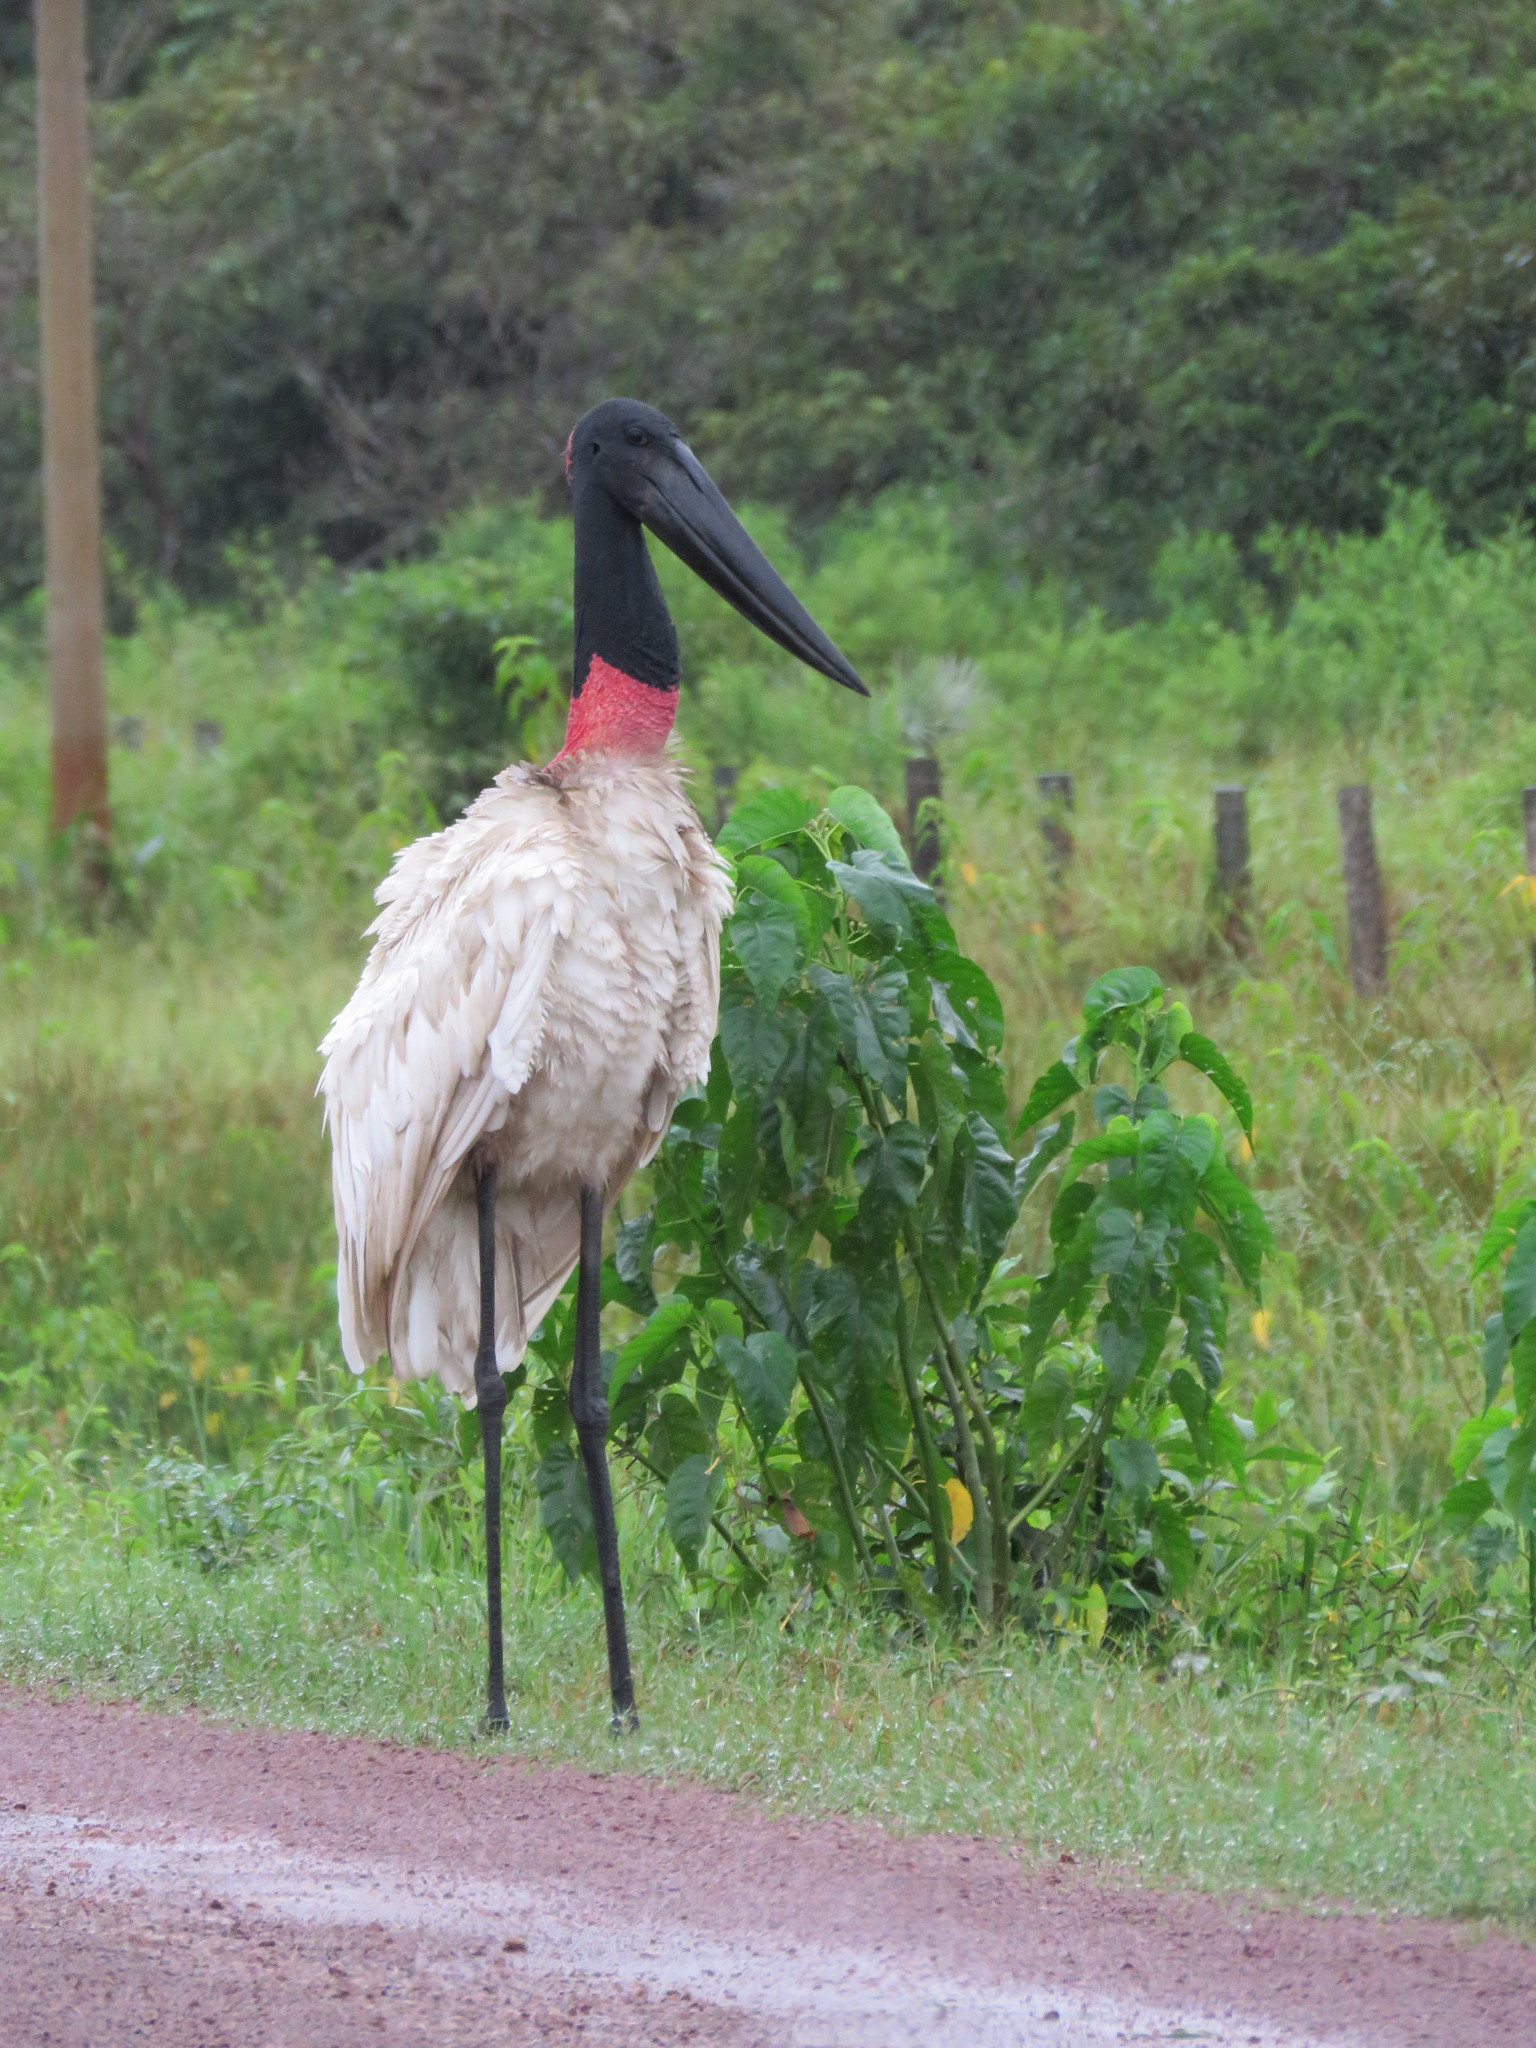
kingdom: Animalia
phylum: Chordata
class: Aves
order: Ciconiiformes
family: Ciconiidae
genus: Jabiru
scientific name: Jabiru mycteria
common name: Jabiru
